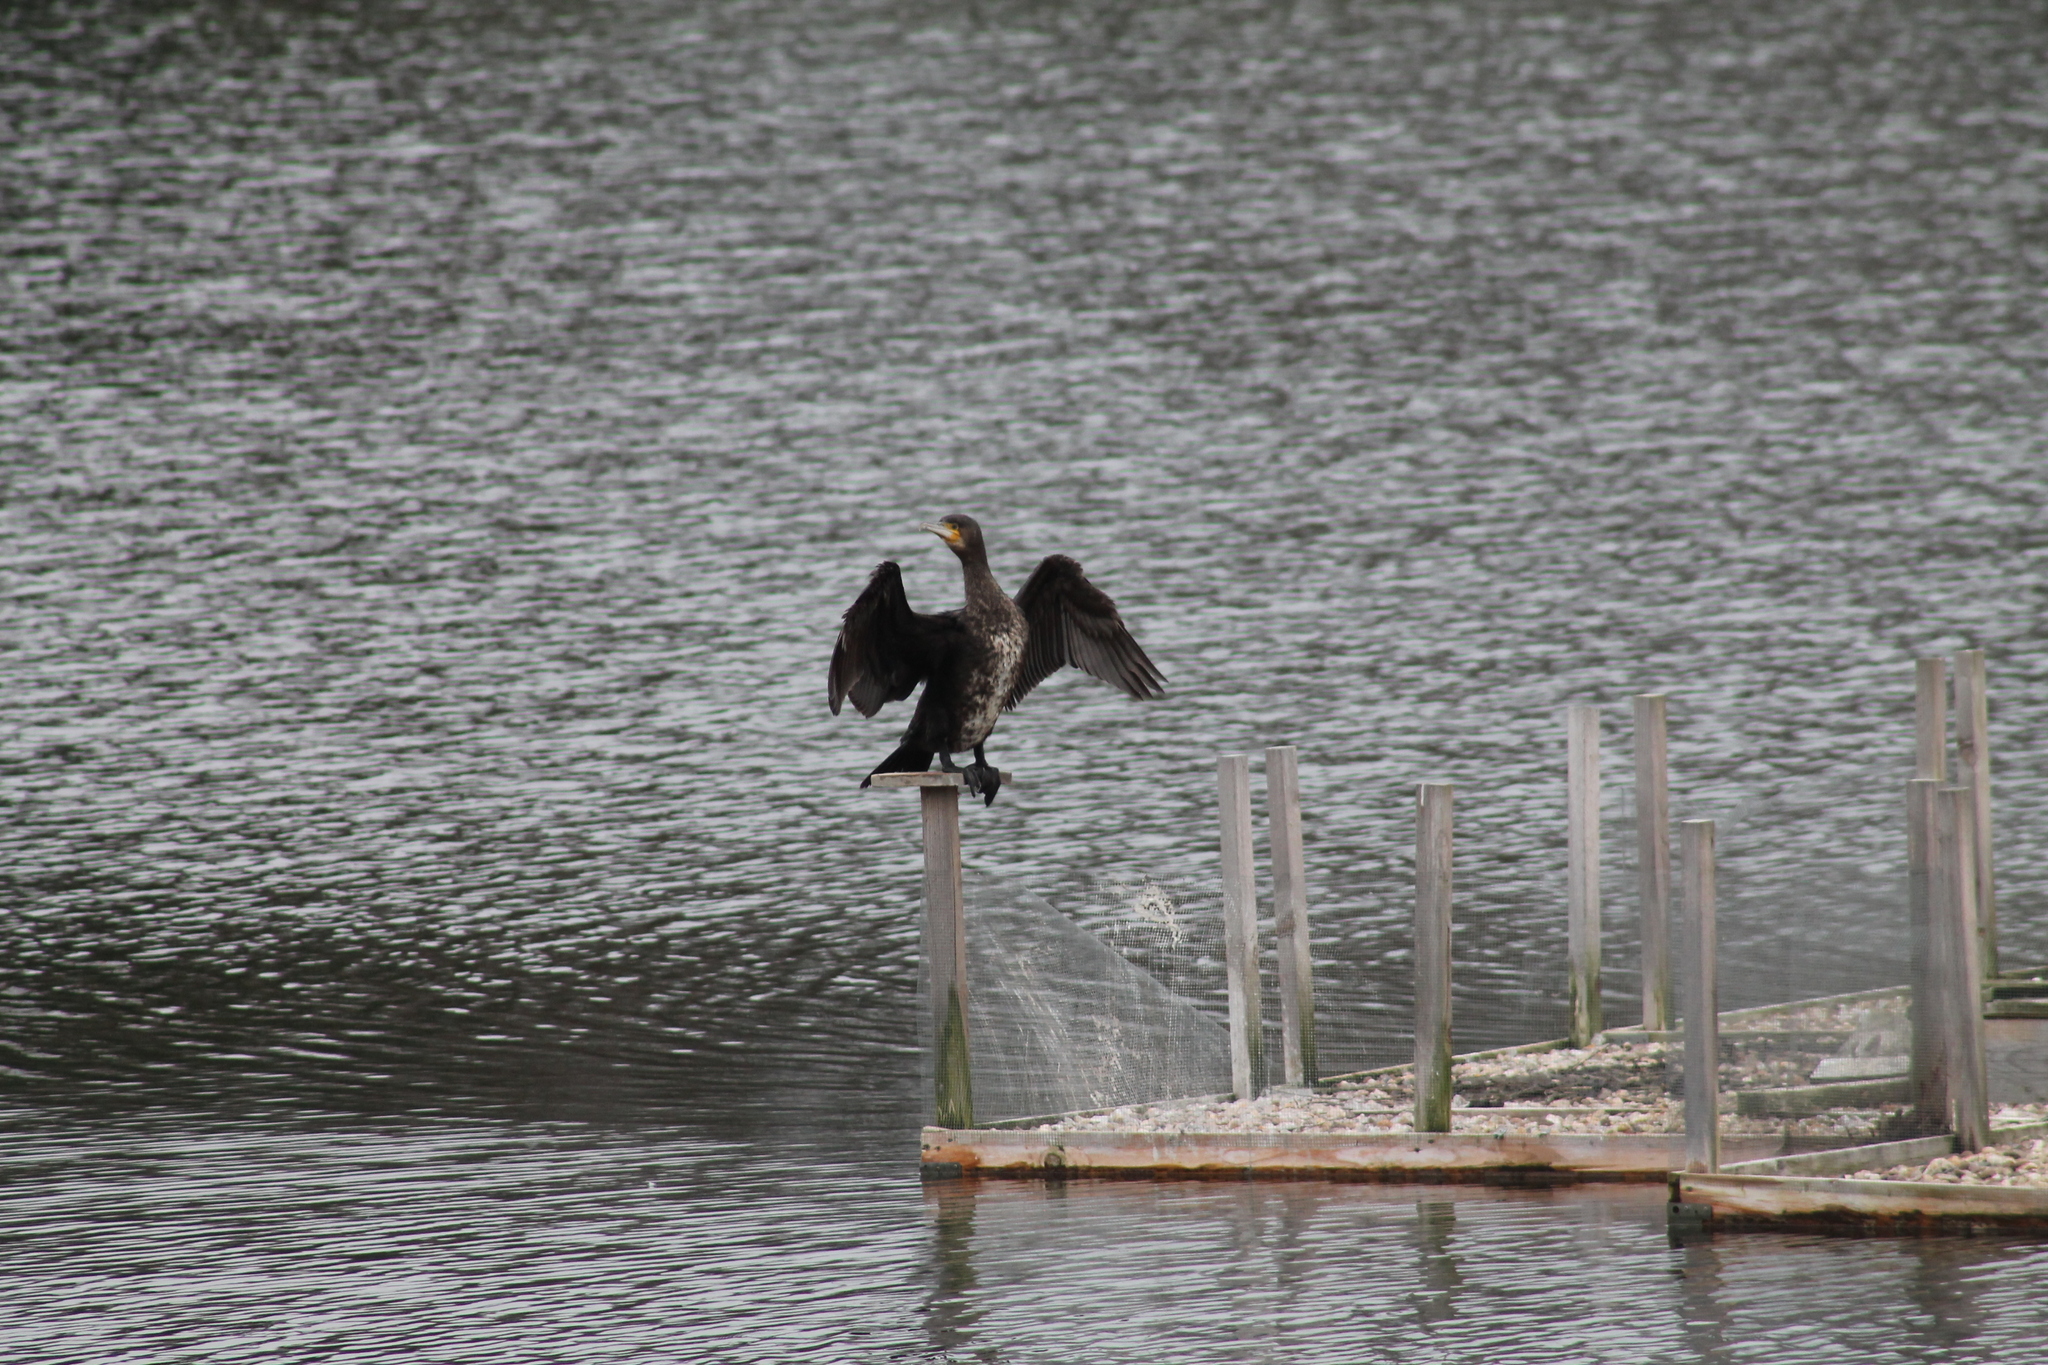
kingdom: Animalia
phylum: Chordata
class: Aves
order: Suliformes
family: Phalacrocoracidae
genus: Phalacrocorax
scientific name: Phalacrocorax carbo
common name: Great cormorant
